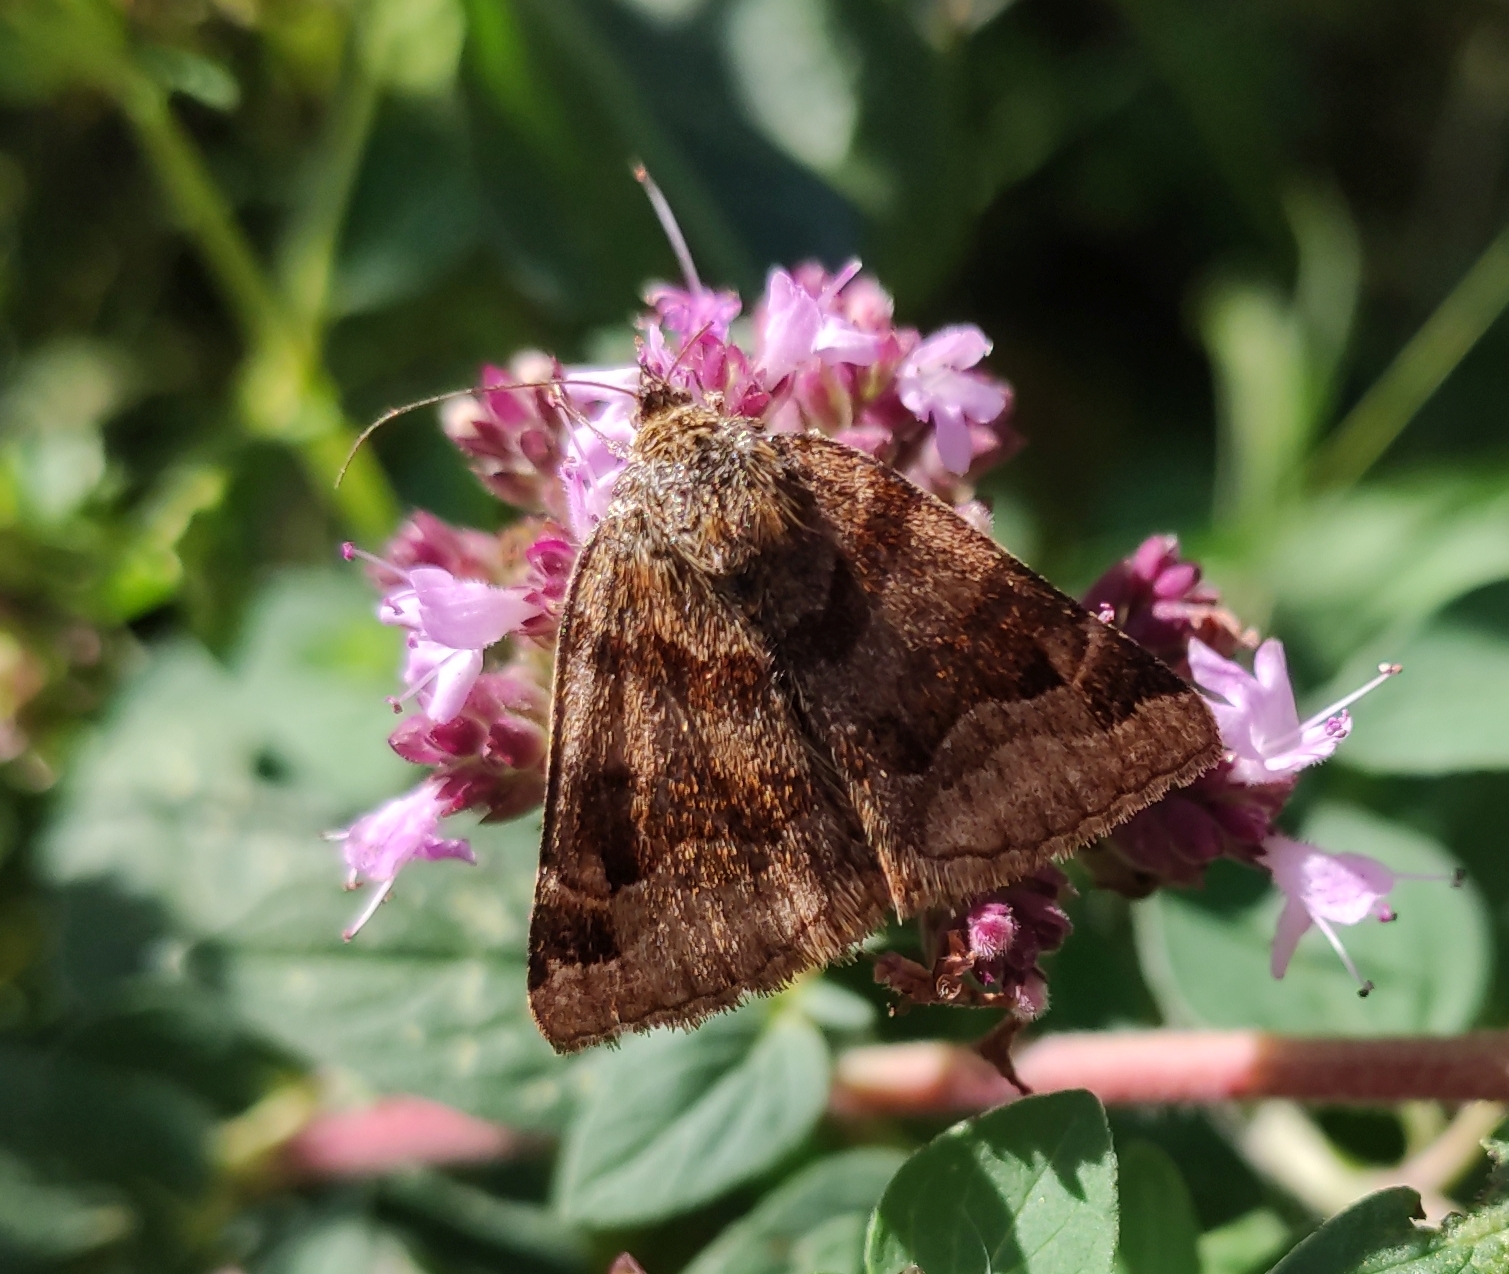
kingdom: Animalia
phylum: Arthropoda
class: Insecta
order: Lepidoptera
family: Erebidae
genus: Euclidia
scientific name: Euclidia glyphica
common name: Burnet companion
